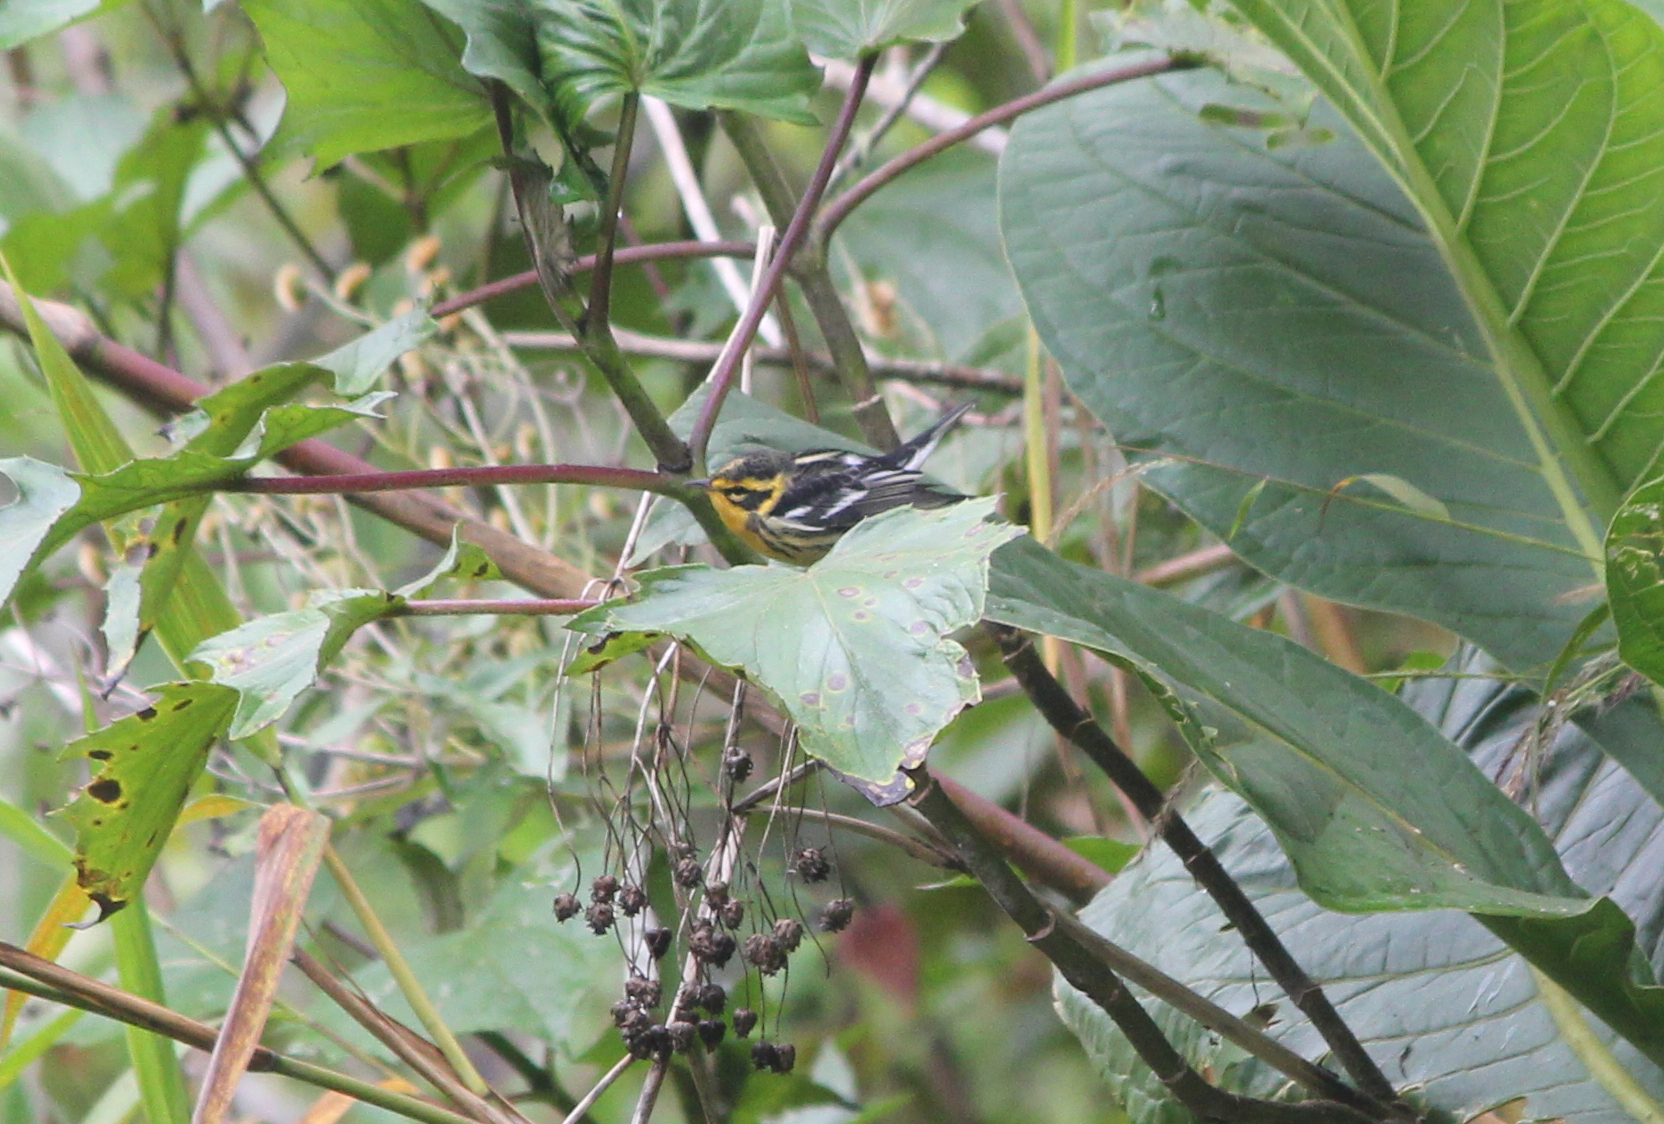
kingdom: Animalia
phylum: Chordata
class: Aves
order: Passeriformes
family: Parulidae
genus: Setophaga
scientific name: Setophaga fusca
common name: Blackburnian warbler
